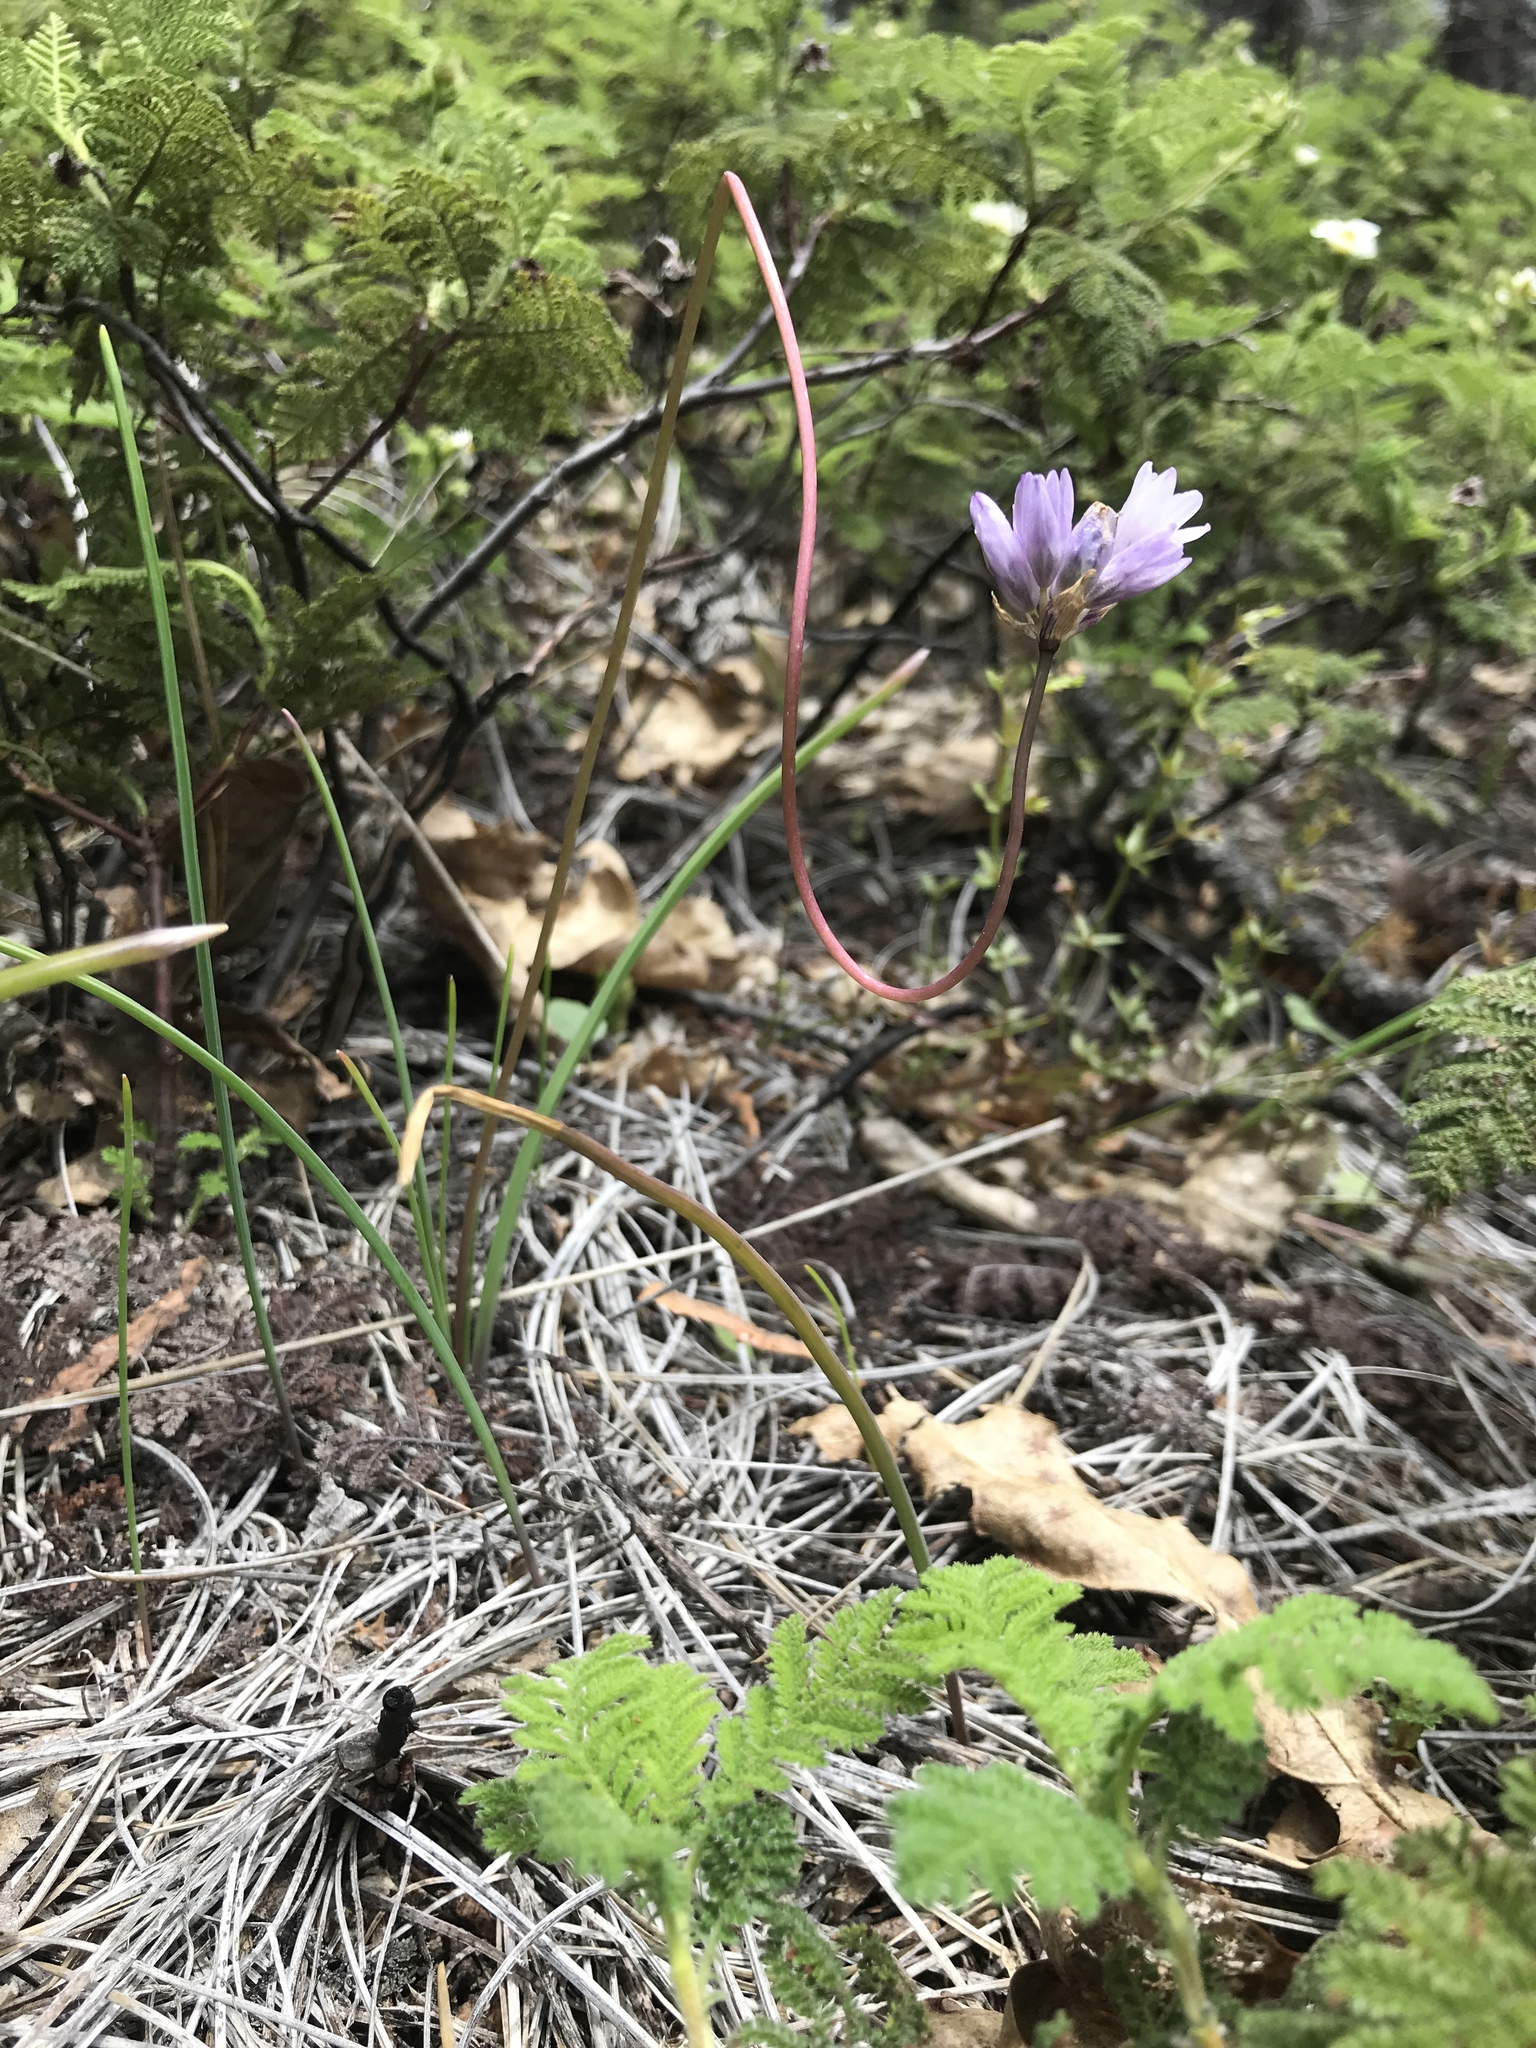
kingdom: Plantae
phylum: Tracheophyta
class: Liliopsida
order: Asparagales
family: Asparagaceae
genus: Dipterostemon
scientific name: Dipterostemon capitatus
